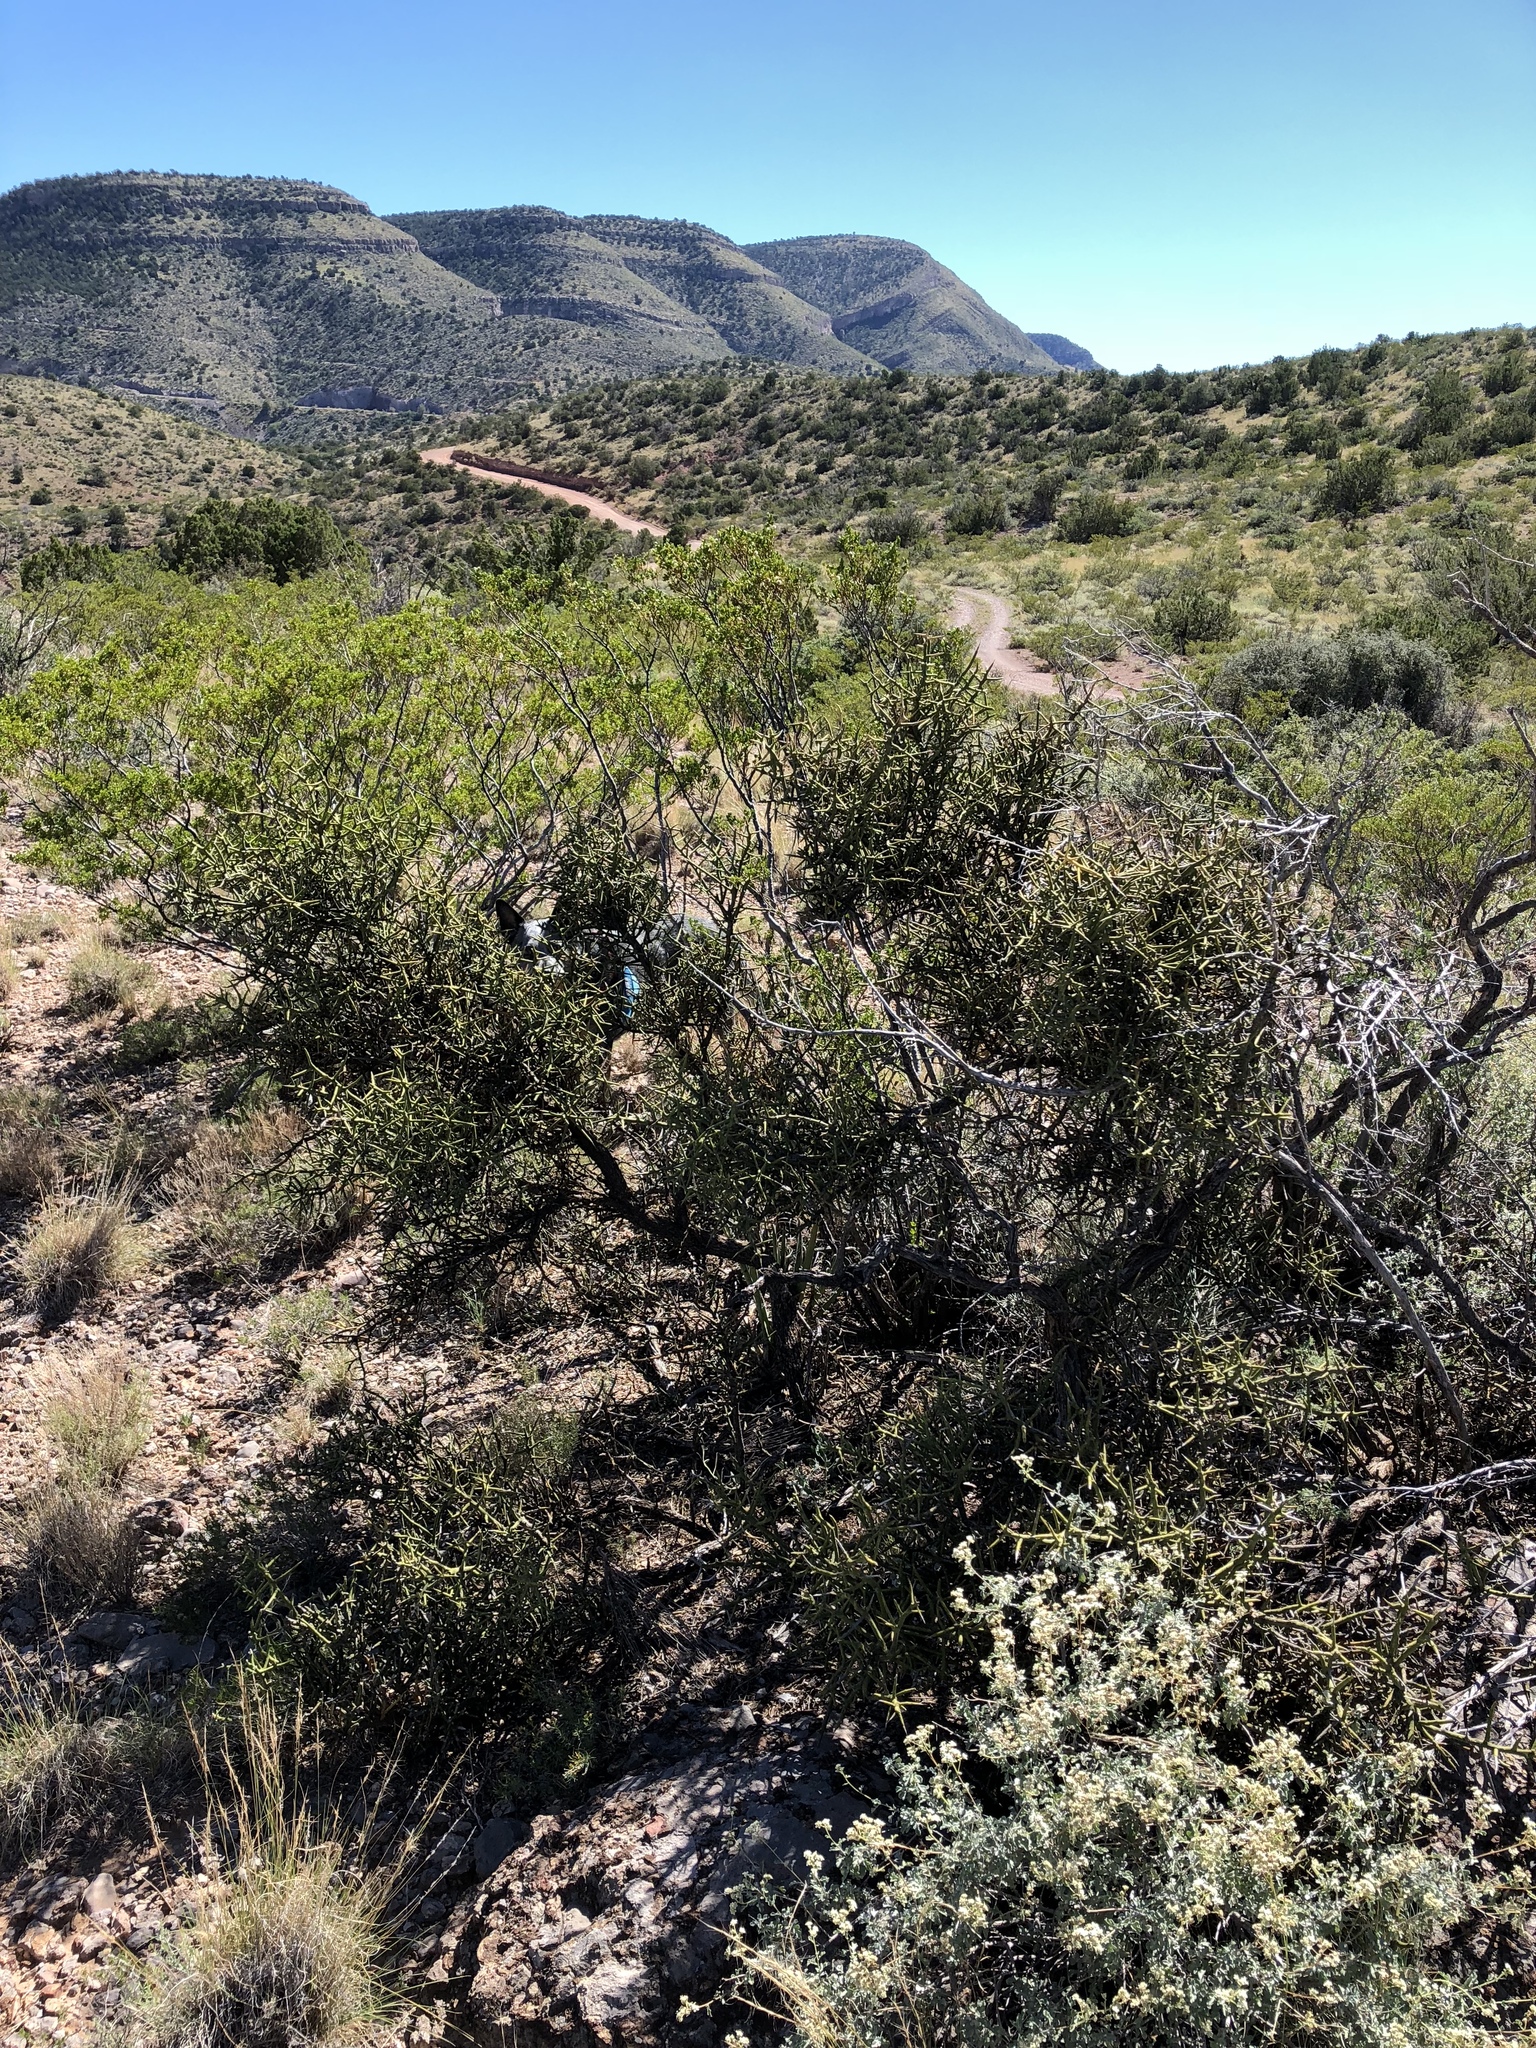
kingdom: Plantae
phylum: Tracheophyta
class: Magnoliopsida
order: Brassicales
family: Koeberliniaceae
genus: Koeberlinia
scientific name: Koeberlinia spinosa
